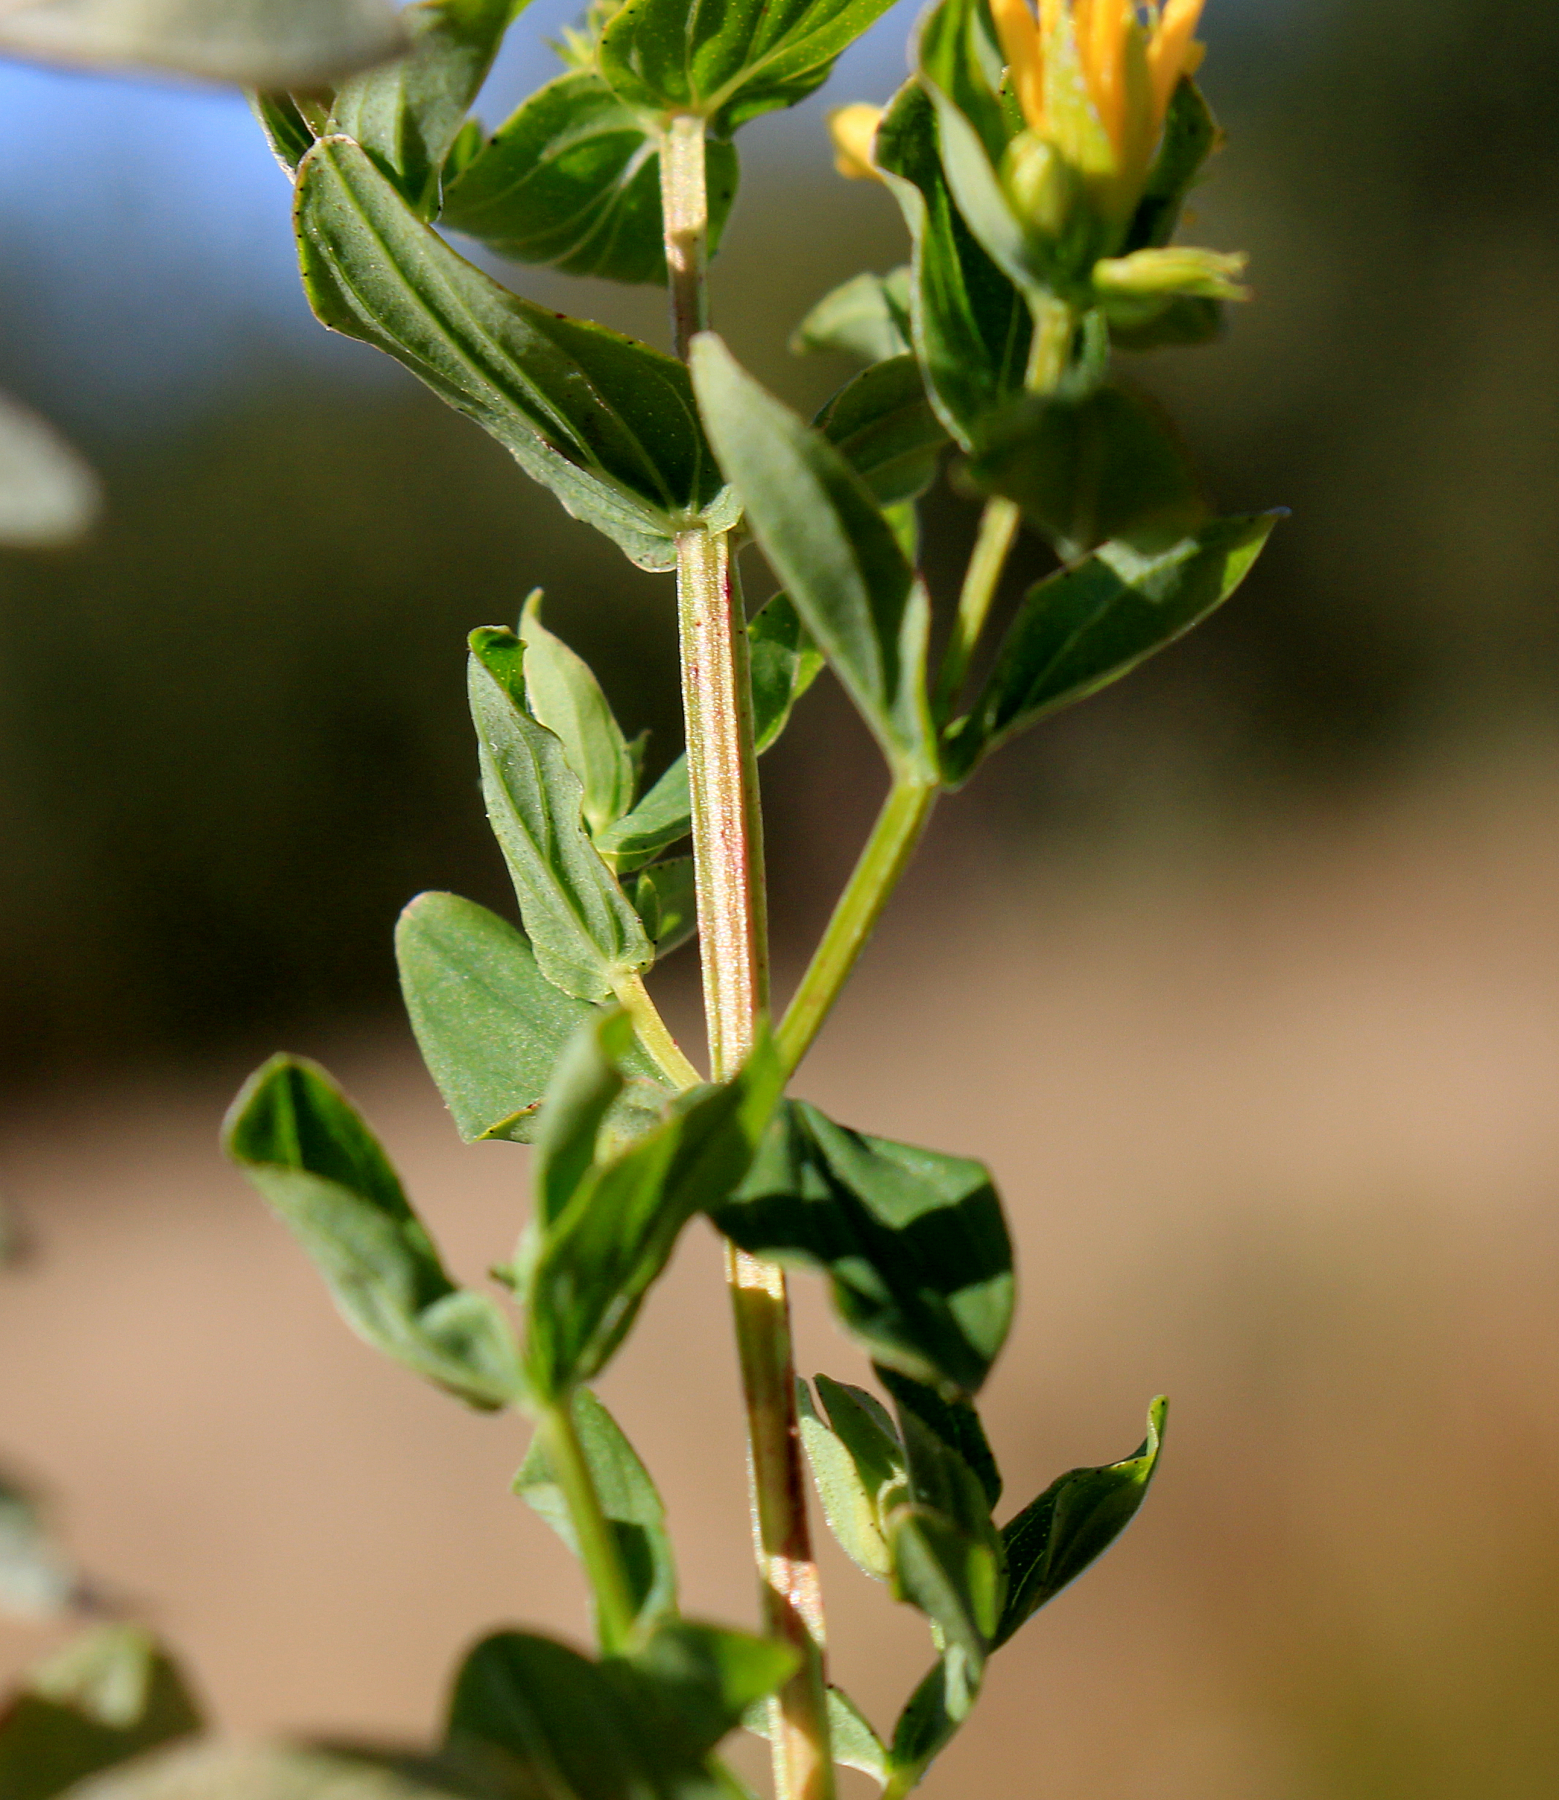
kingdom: Plantae
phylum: Tracheophyta
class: Magnoliopsida
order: Malpighiales
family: Hypericaceae
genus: Hypericum
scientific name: Hypericum tetrapterum
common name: Square-stalked st. john's-wort
